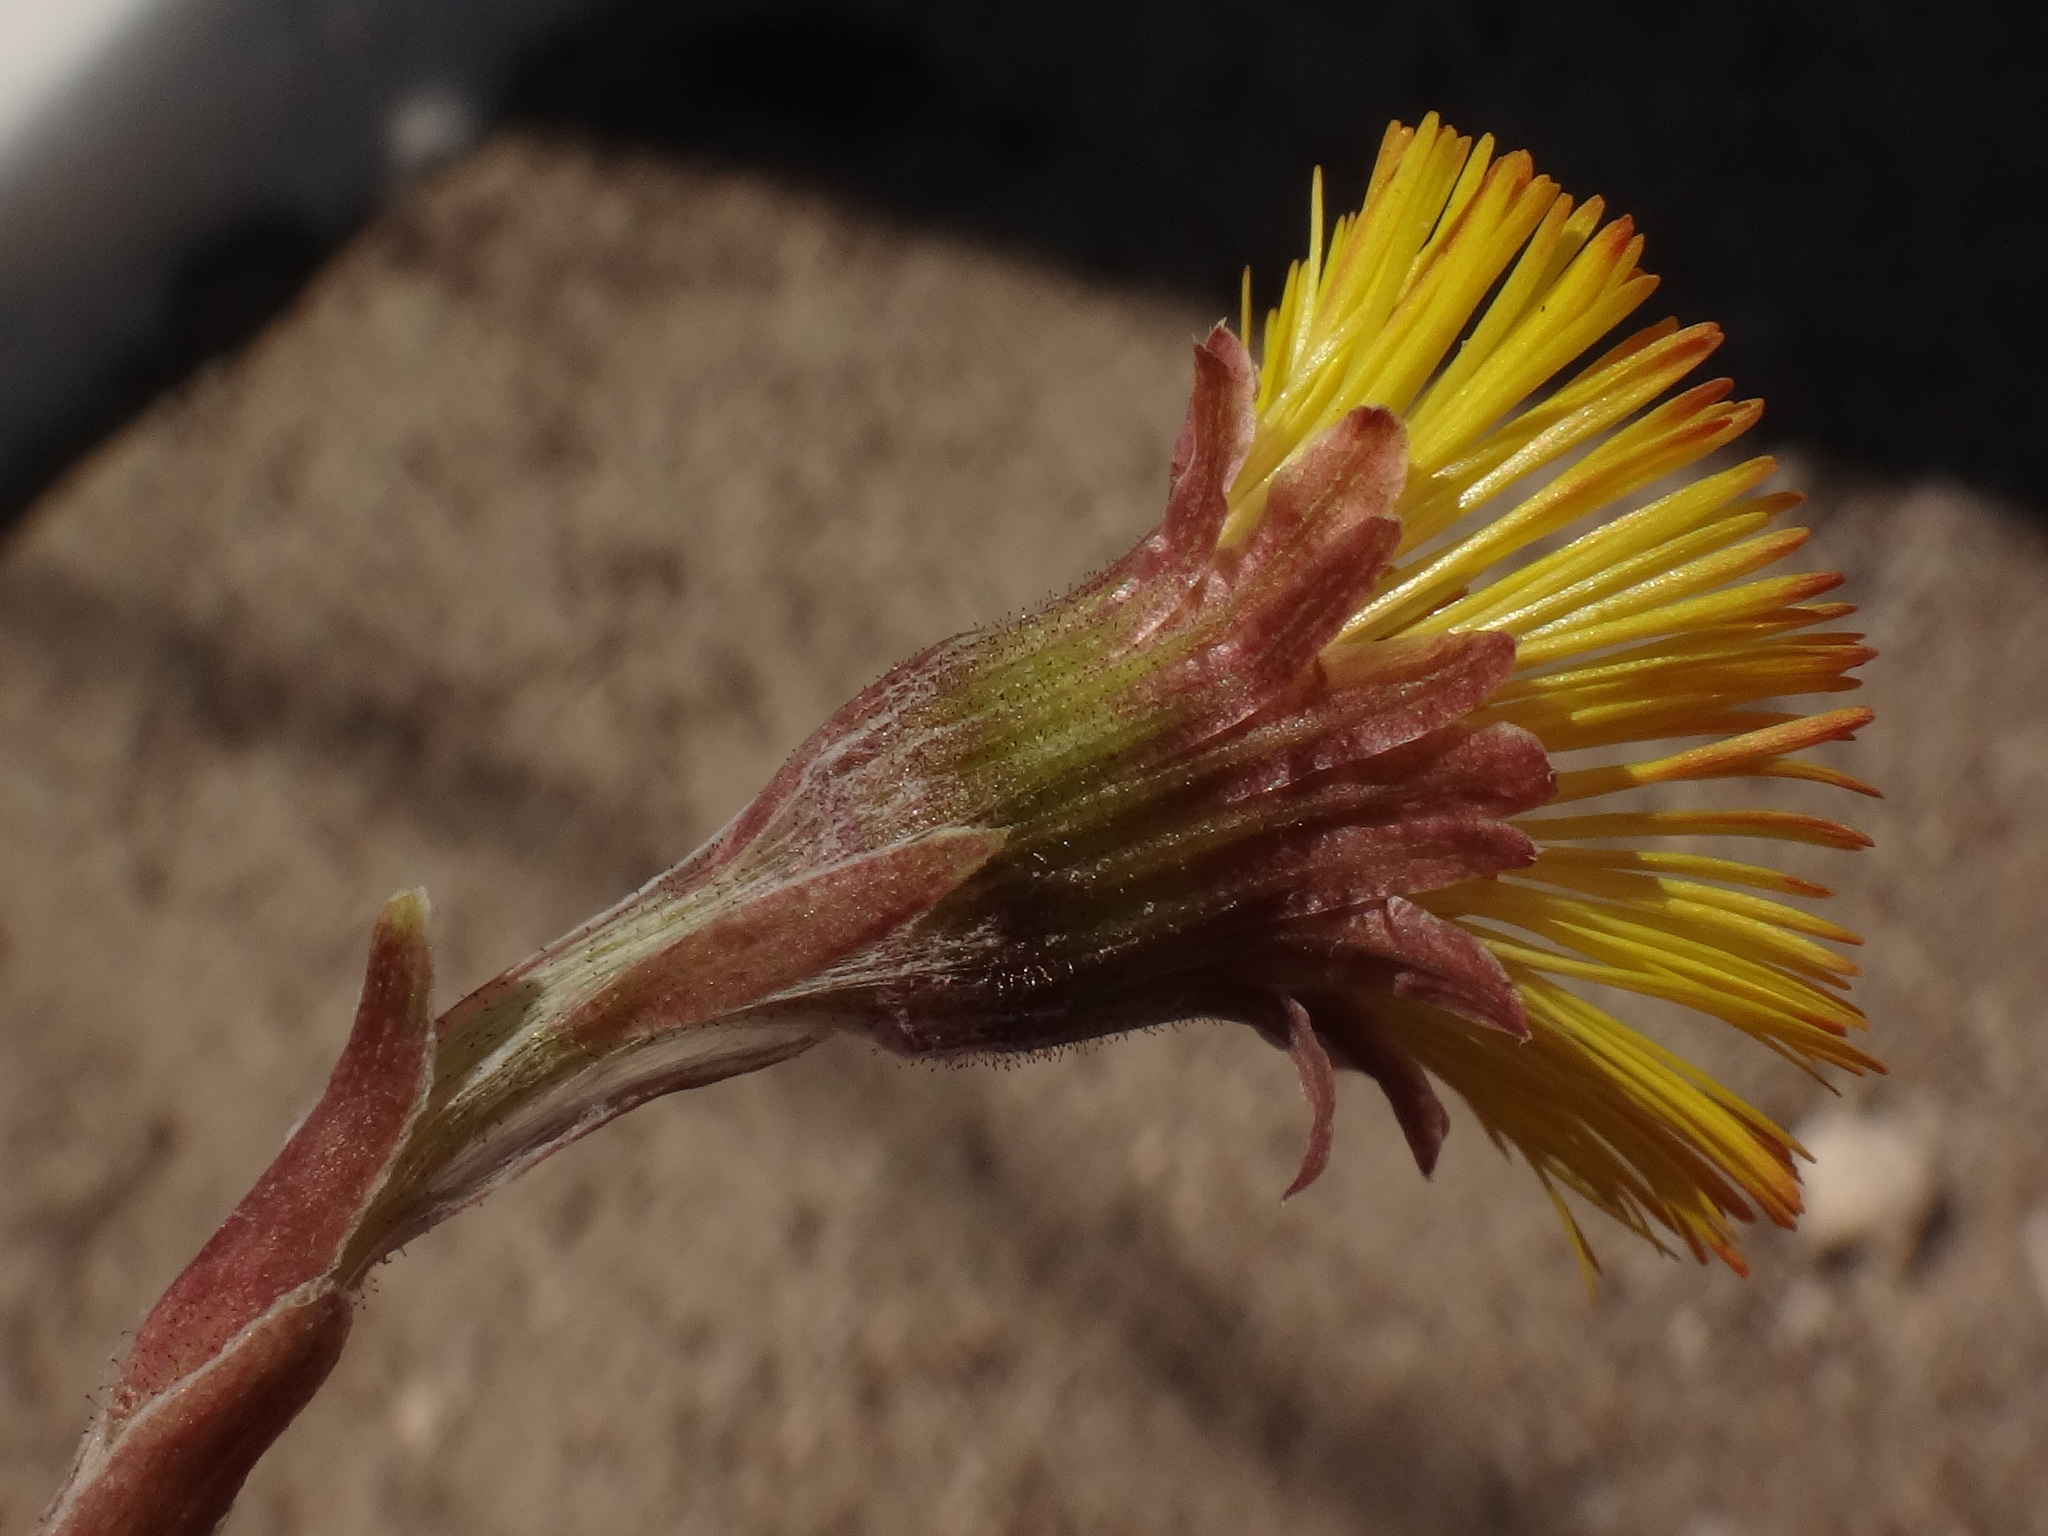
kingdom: Plantae
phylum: Tracheophyta
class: Magnoliopsida
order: Asterales
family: Asteraceae
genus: Tussilago
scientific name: Tussilago farfara
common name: Coltsfoot
